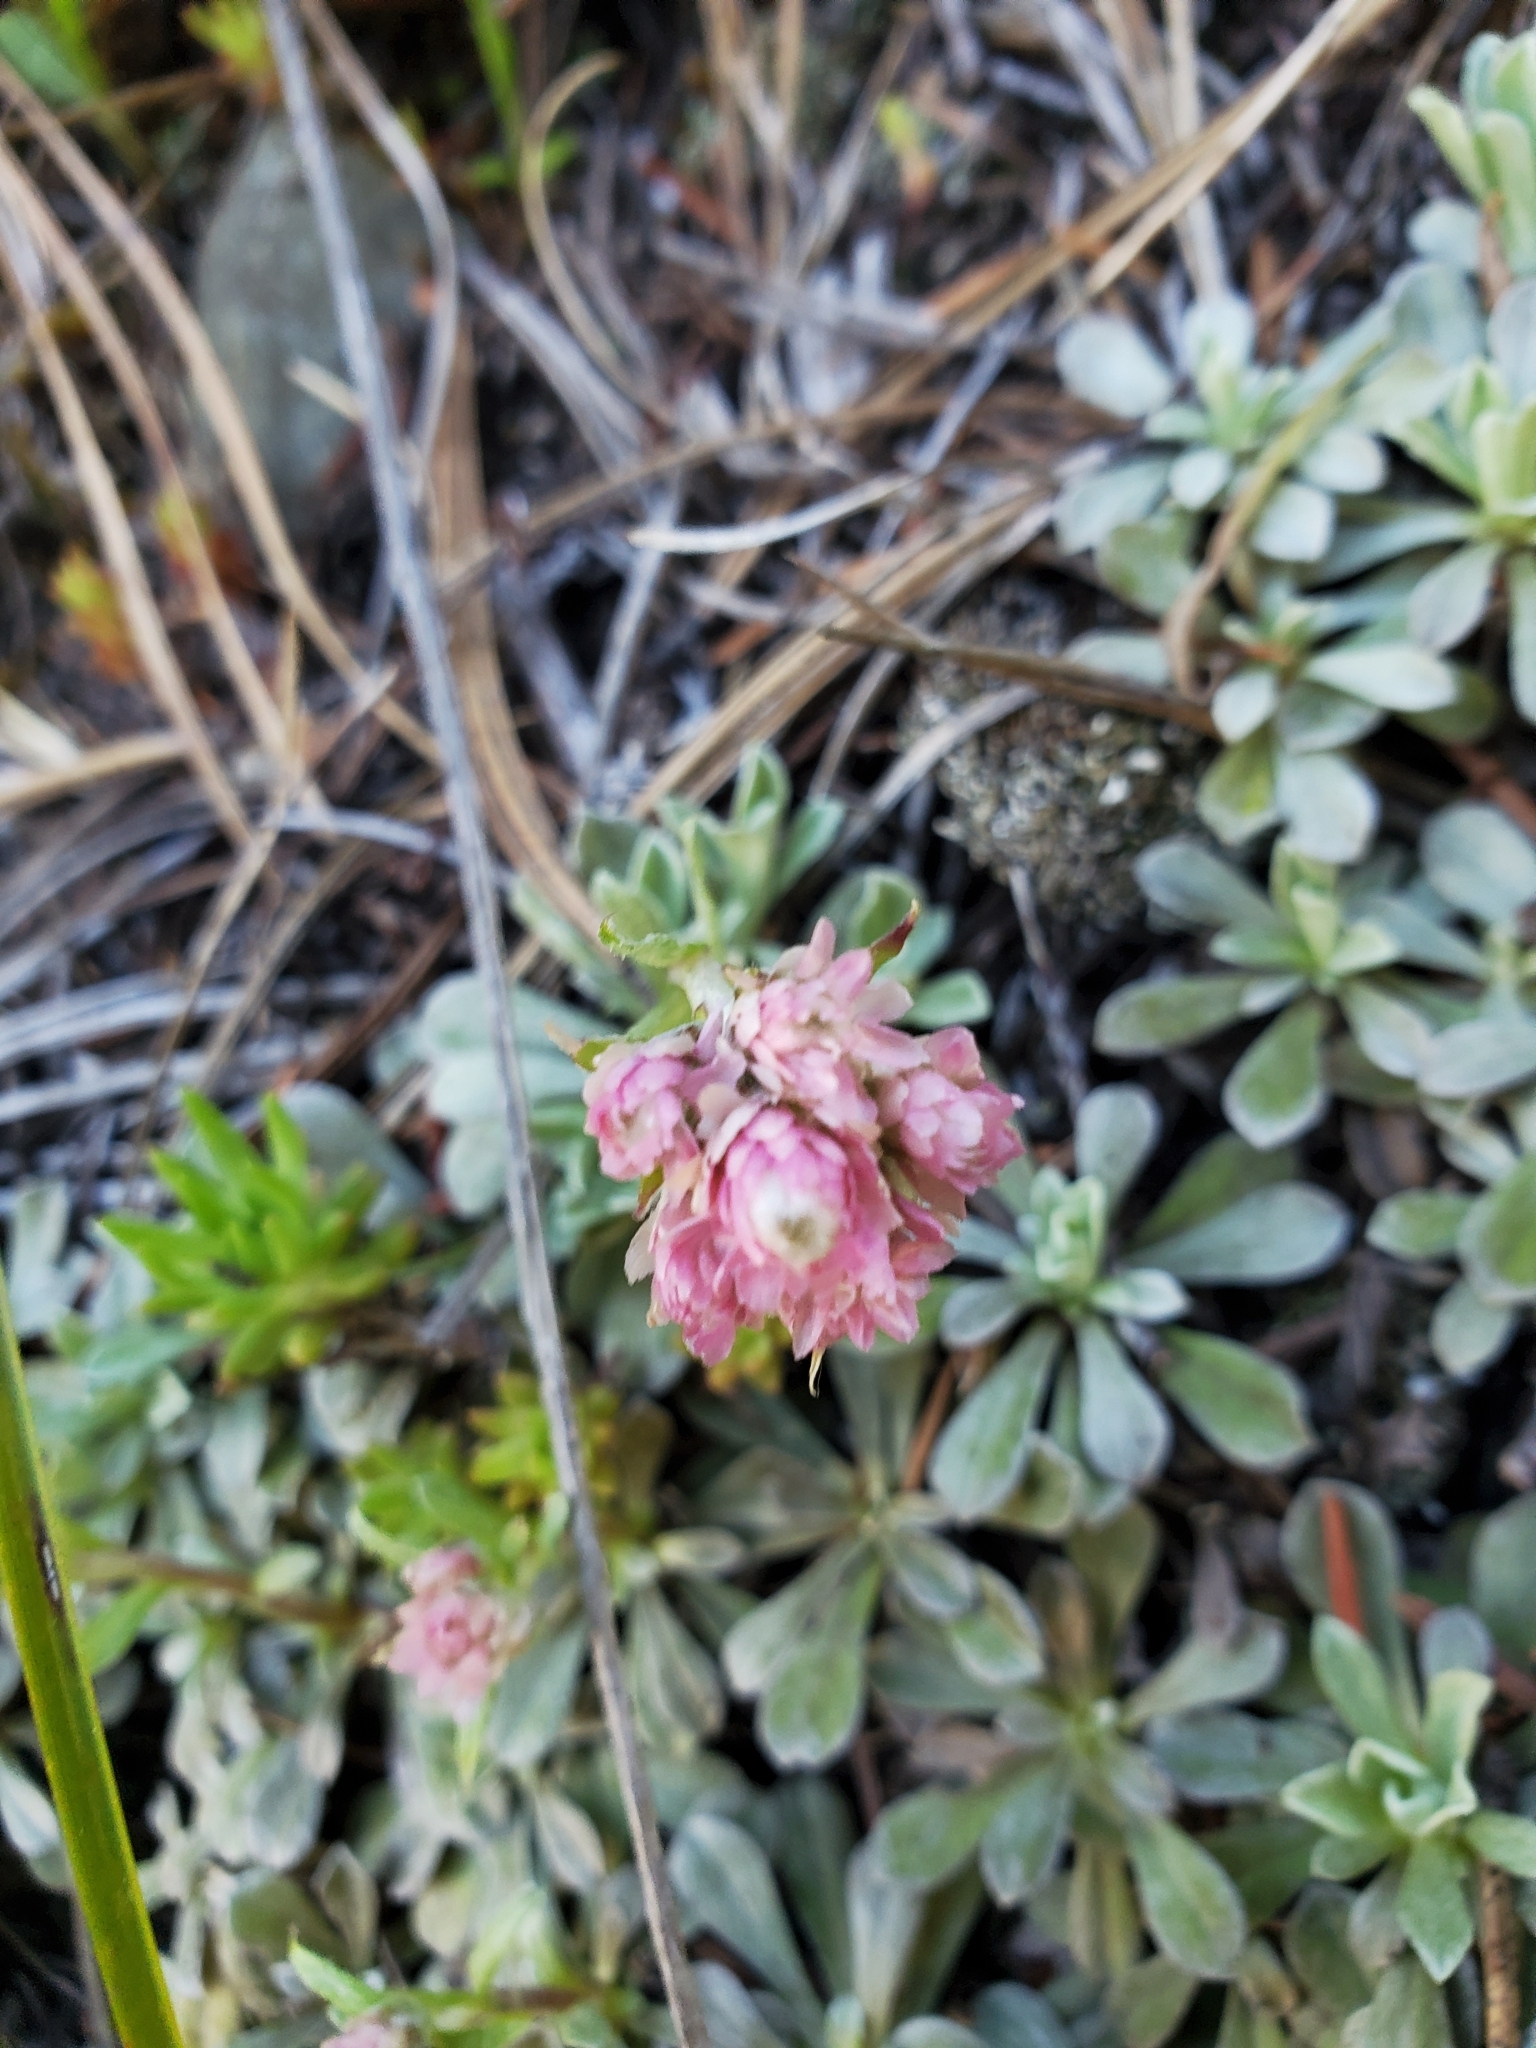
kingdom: Plantae
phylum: Tracheophyta
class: Magnoliopsida
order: Asterales
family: Asteraceae
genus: Antennaria
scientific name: Antennaria rosea
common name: Rosy pussytoes
